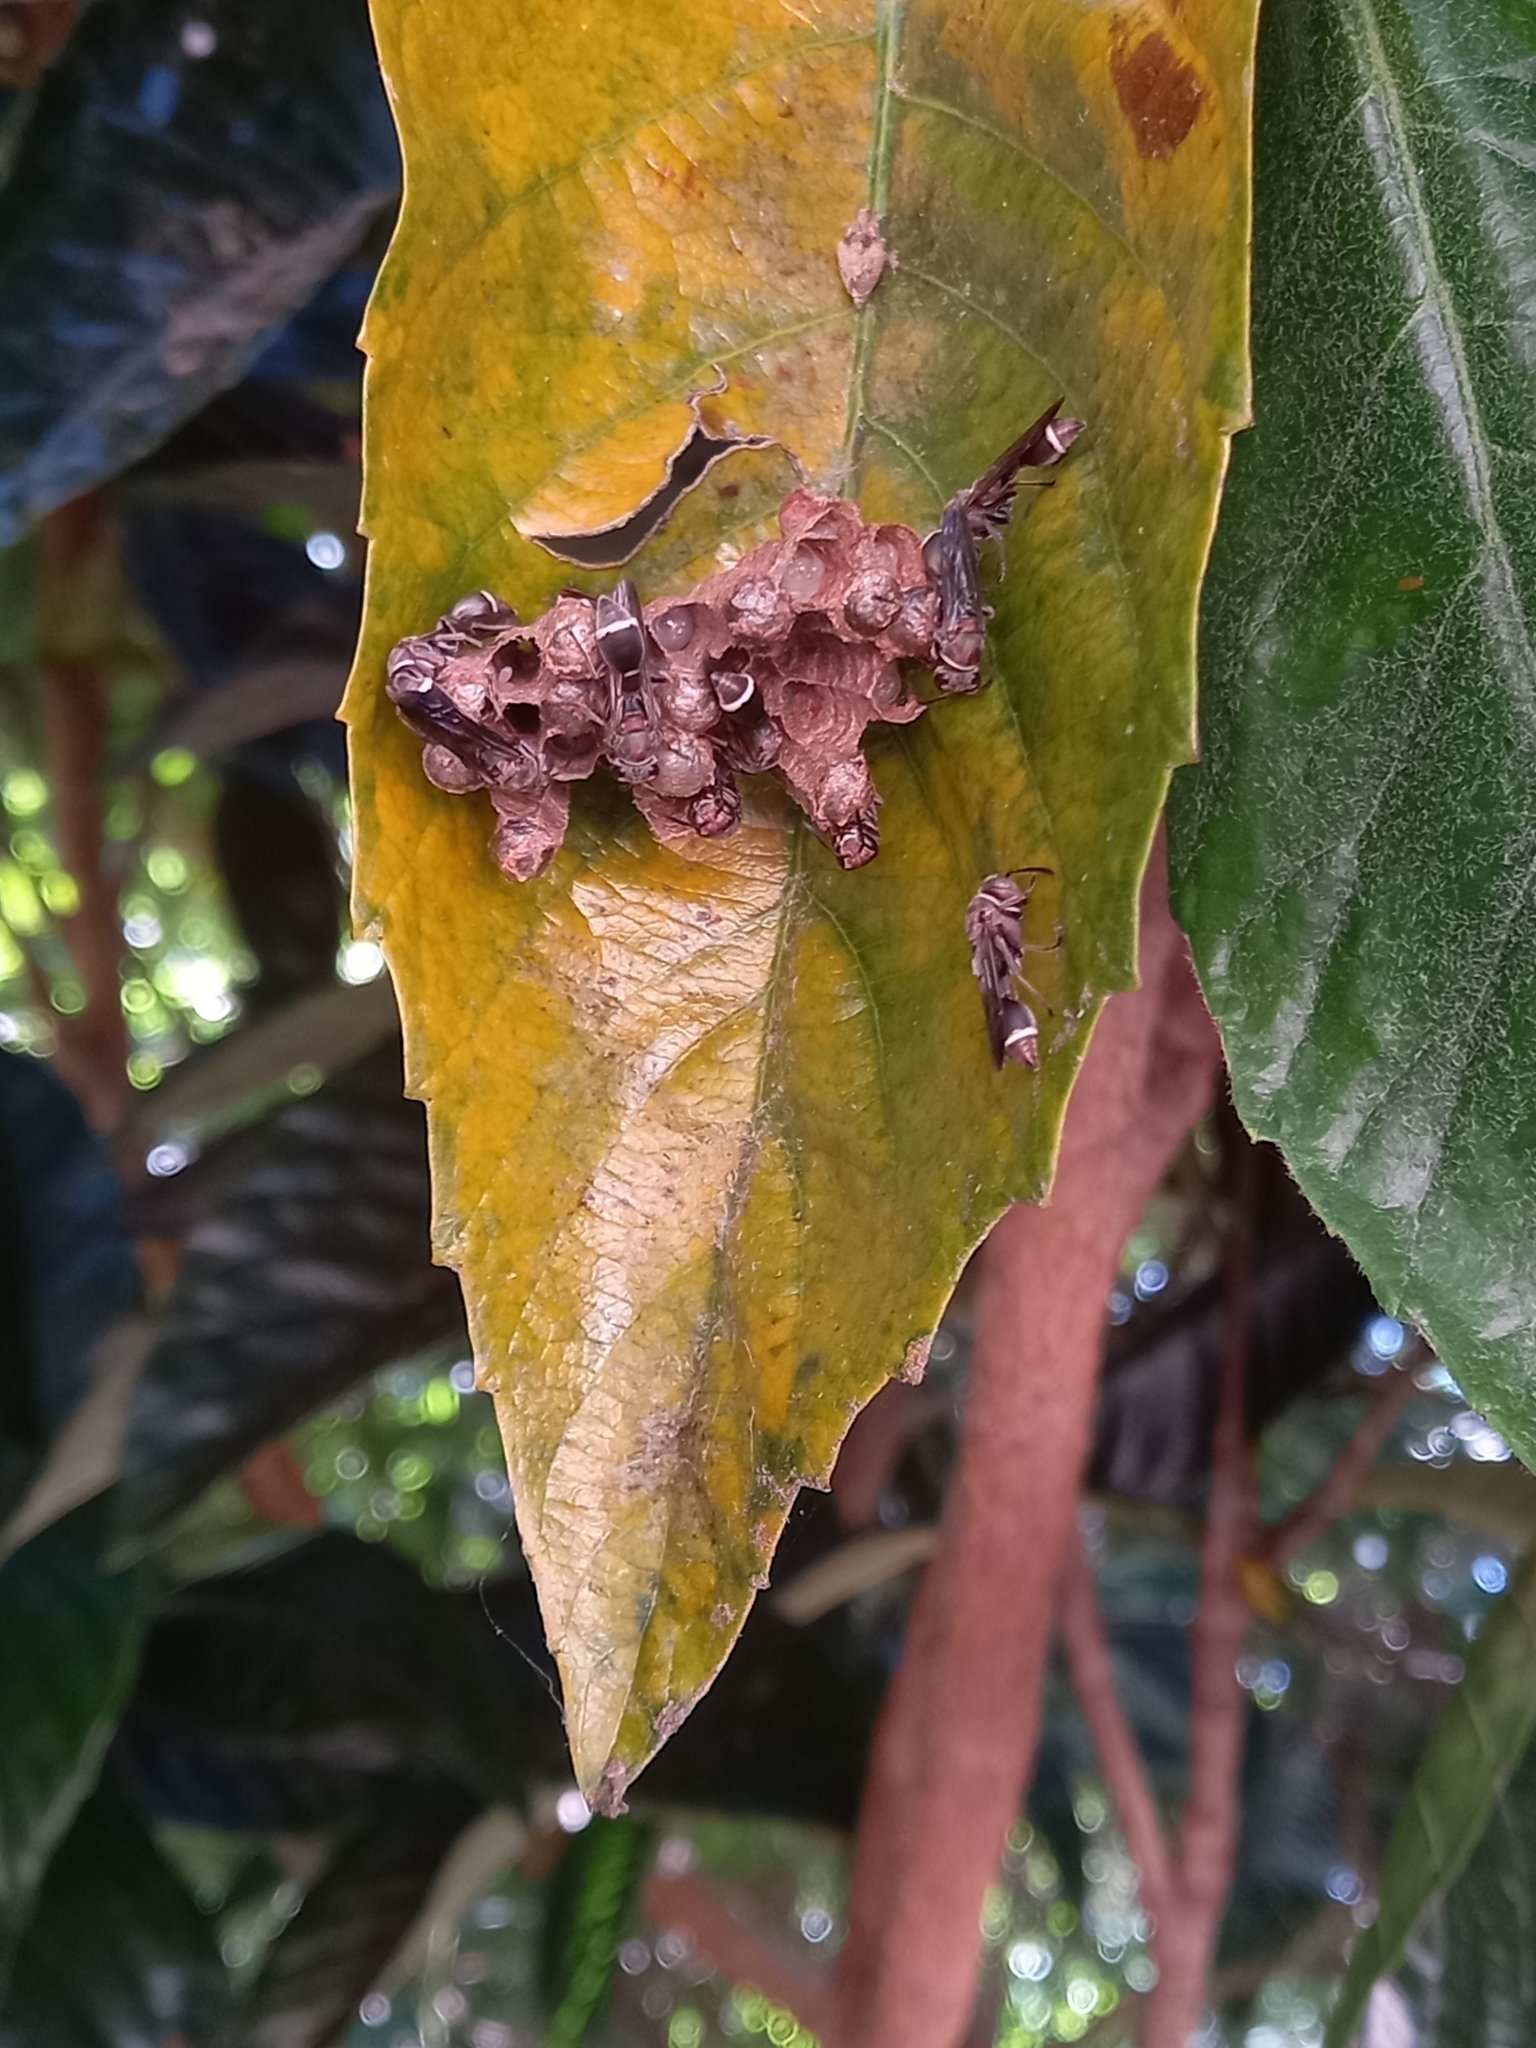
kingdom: Animalia
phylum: Arthropoda
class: Insecta
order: Hymenoptera
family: Vespidae
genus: Ropalidia
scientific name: Ropalidia capensis
